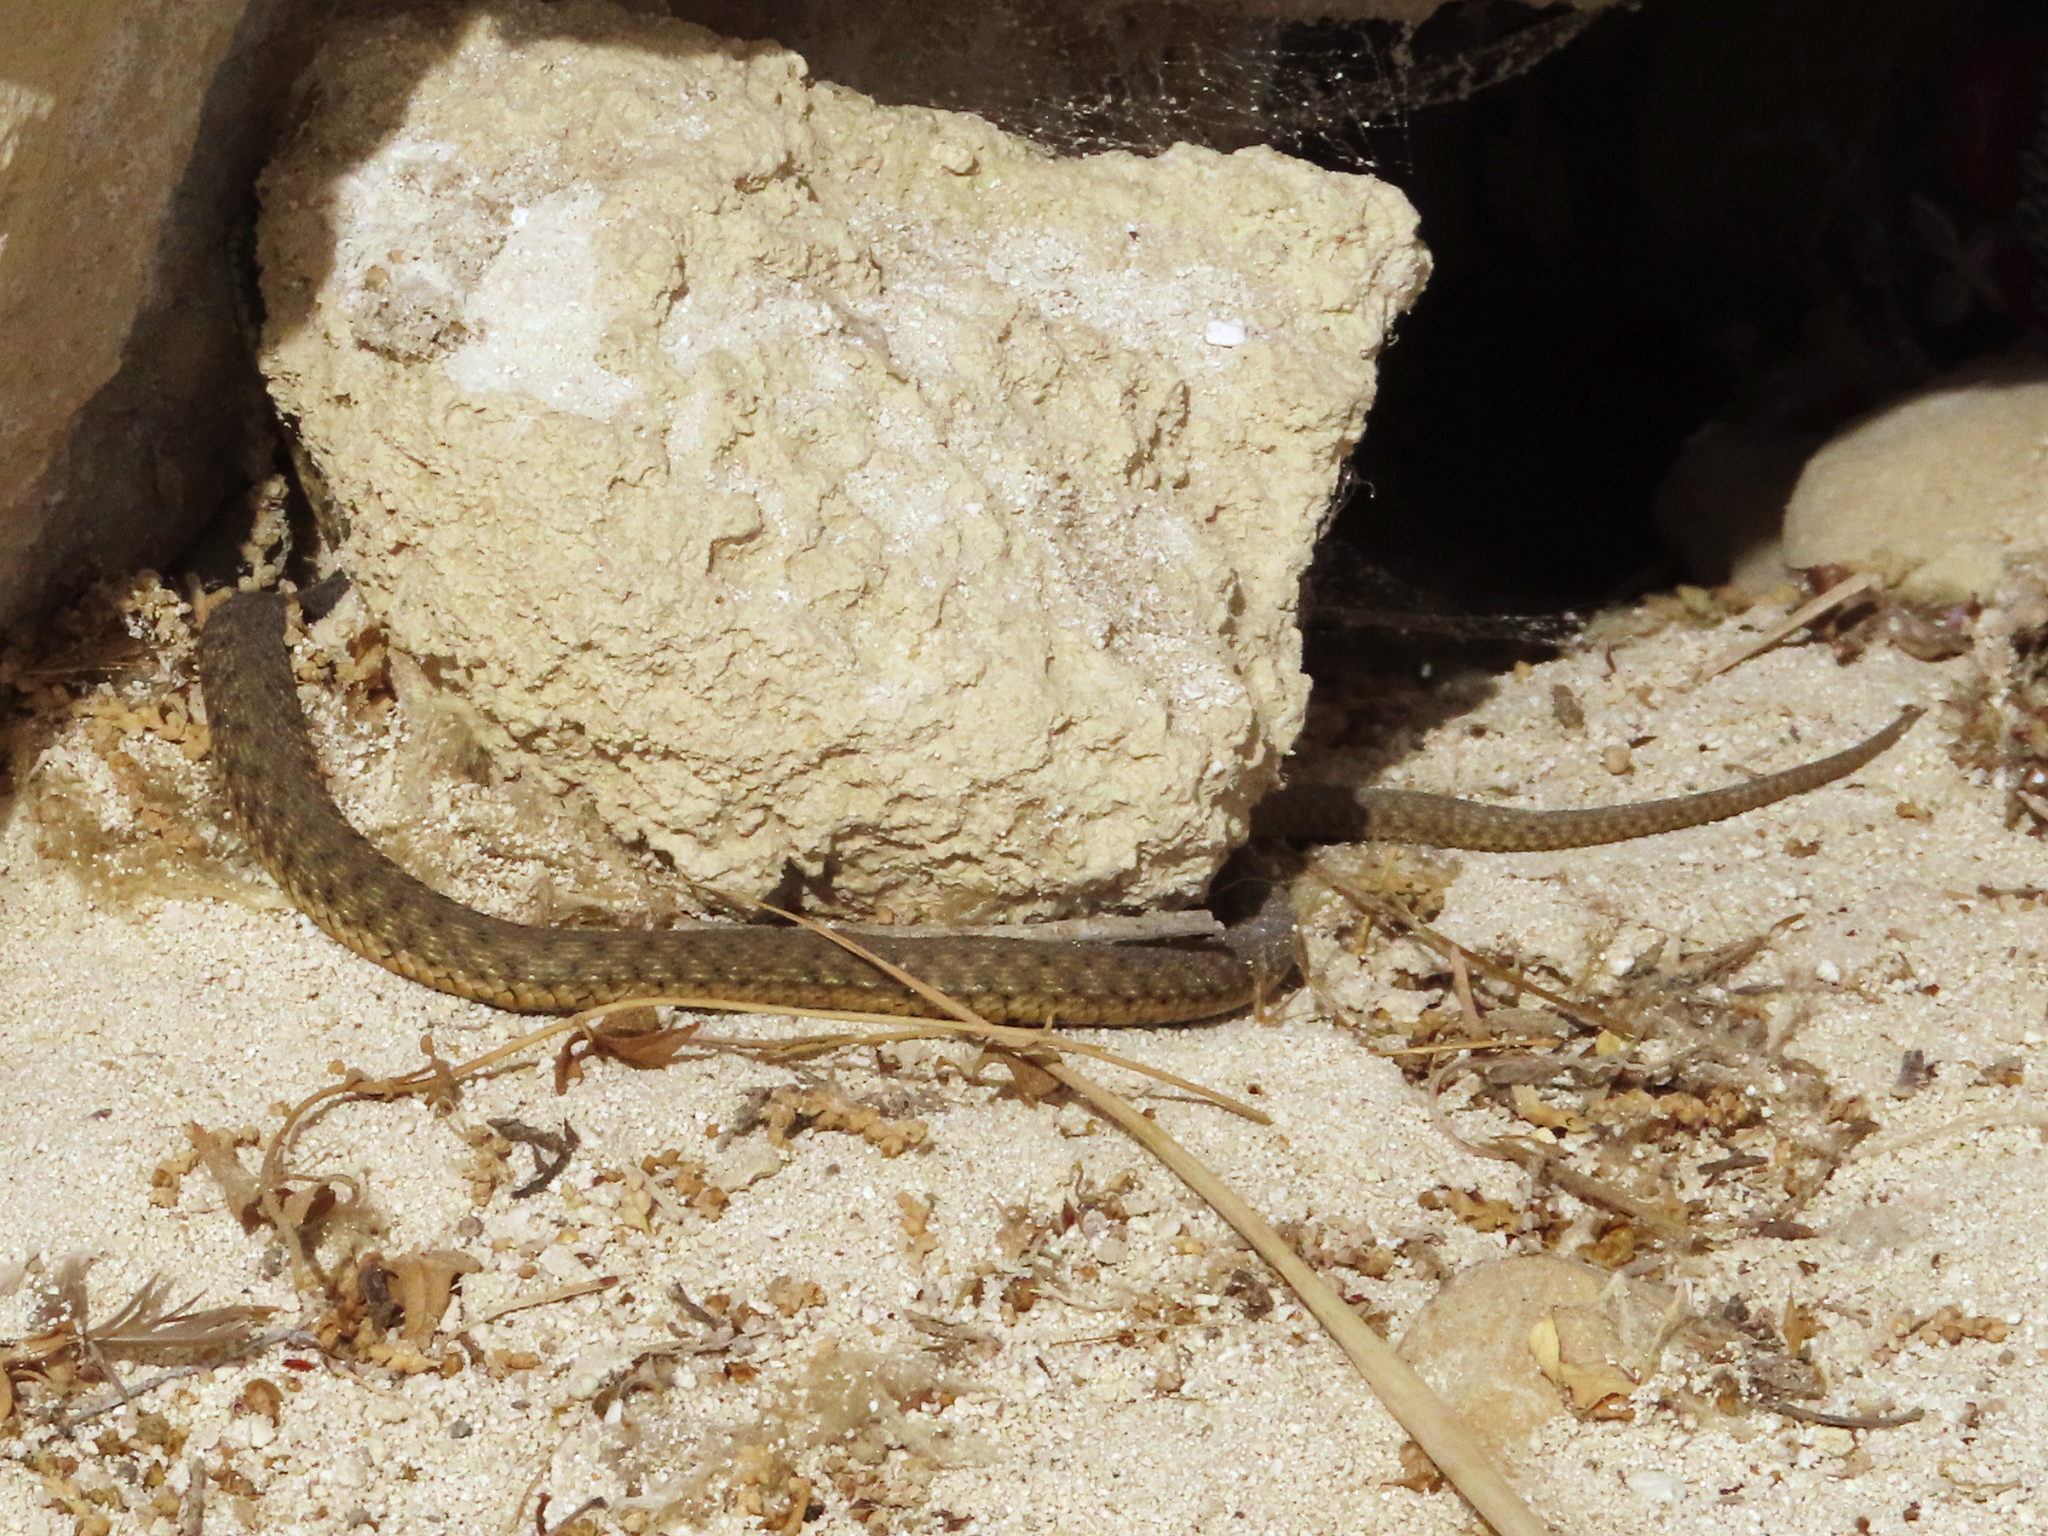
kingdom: Animalia
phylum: Chordata
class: Squamata
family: Colubridae
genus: Natrix
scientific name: Natrix tessellata
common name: Dice snake
